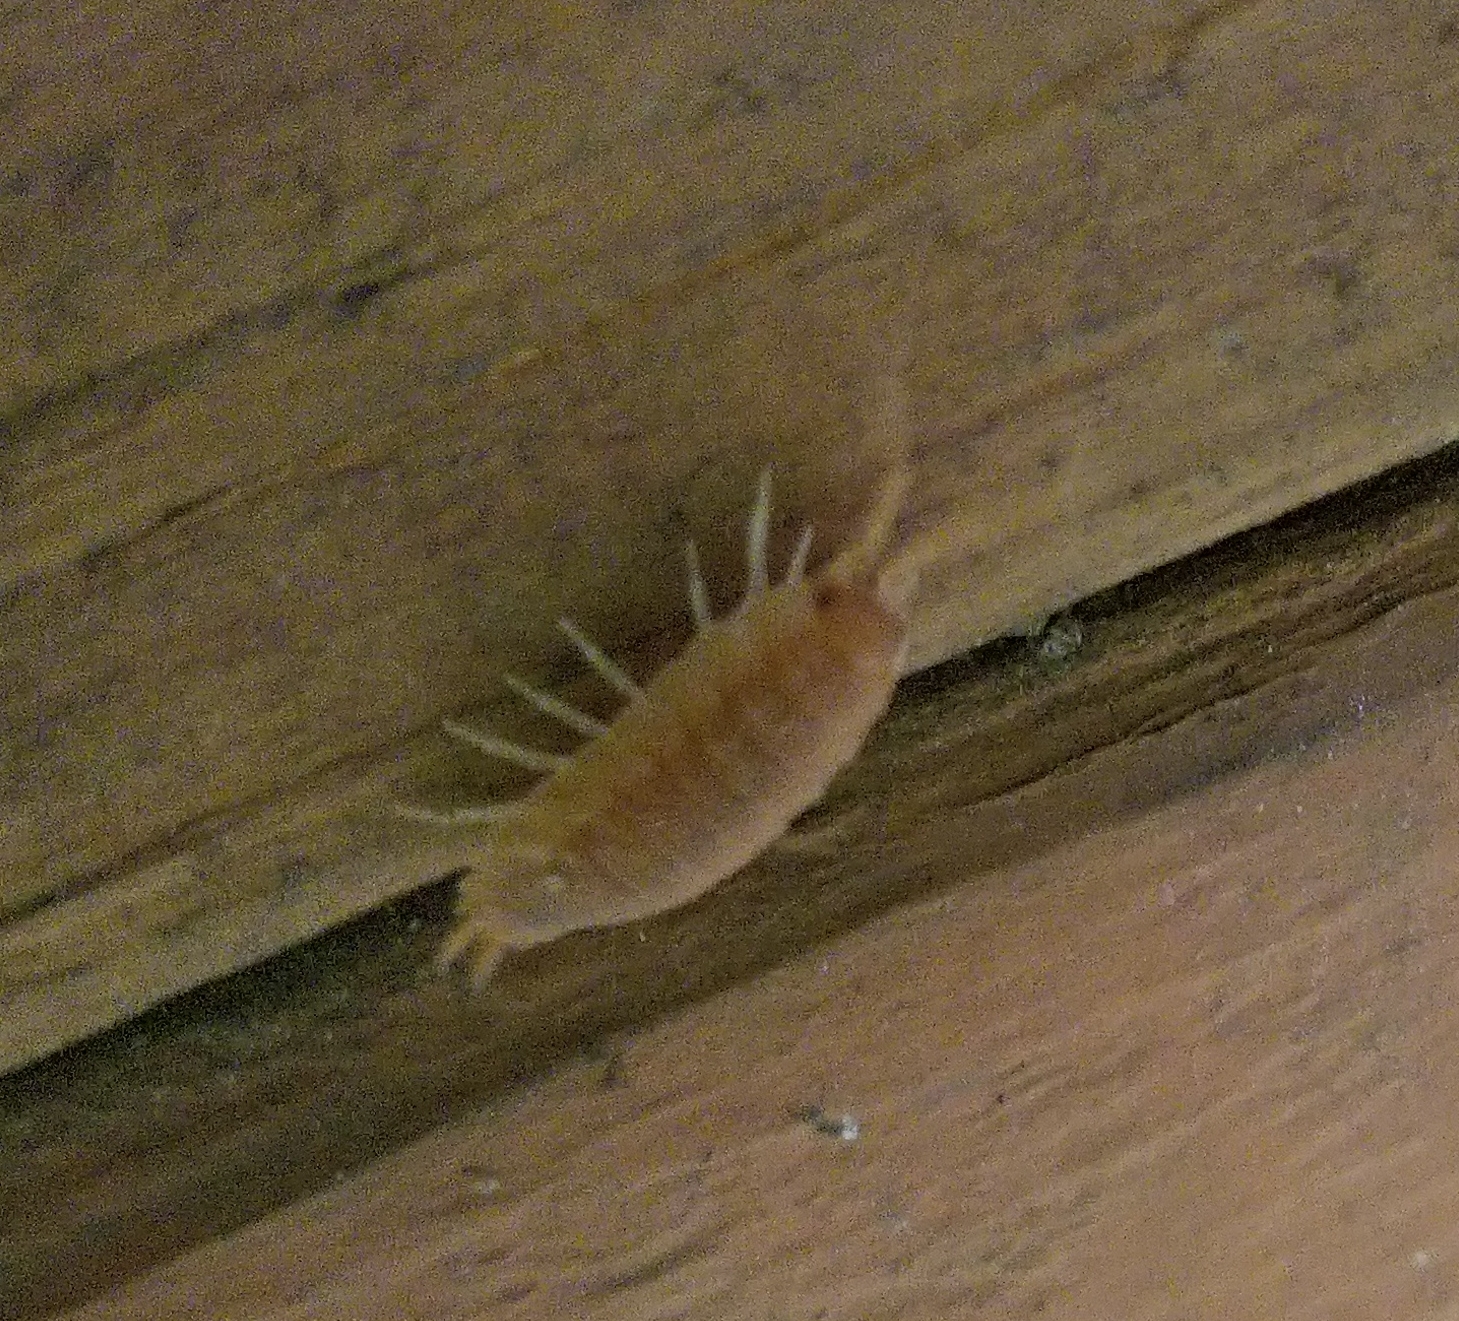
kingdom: Animalia
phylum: Arthropoda
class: Malacostraca
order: Isopoda
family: Porcellionidae
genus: Porcellio
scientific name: Porcellio scaber
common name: Common rough woodlouse
